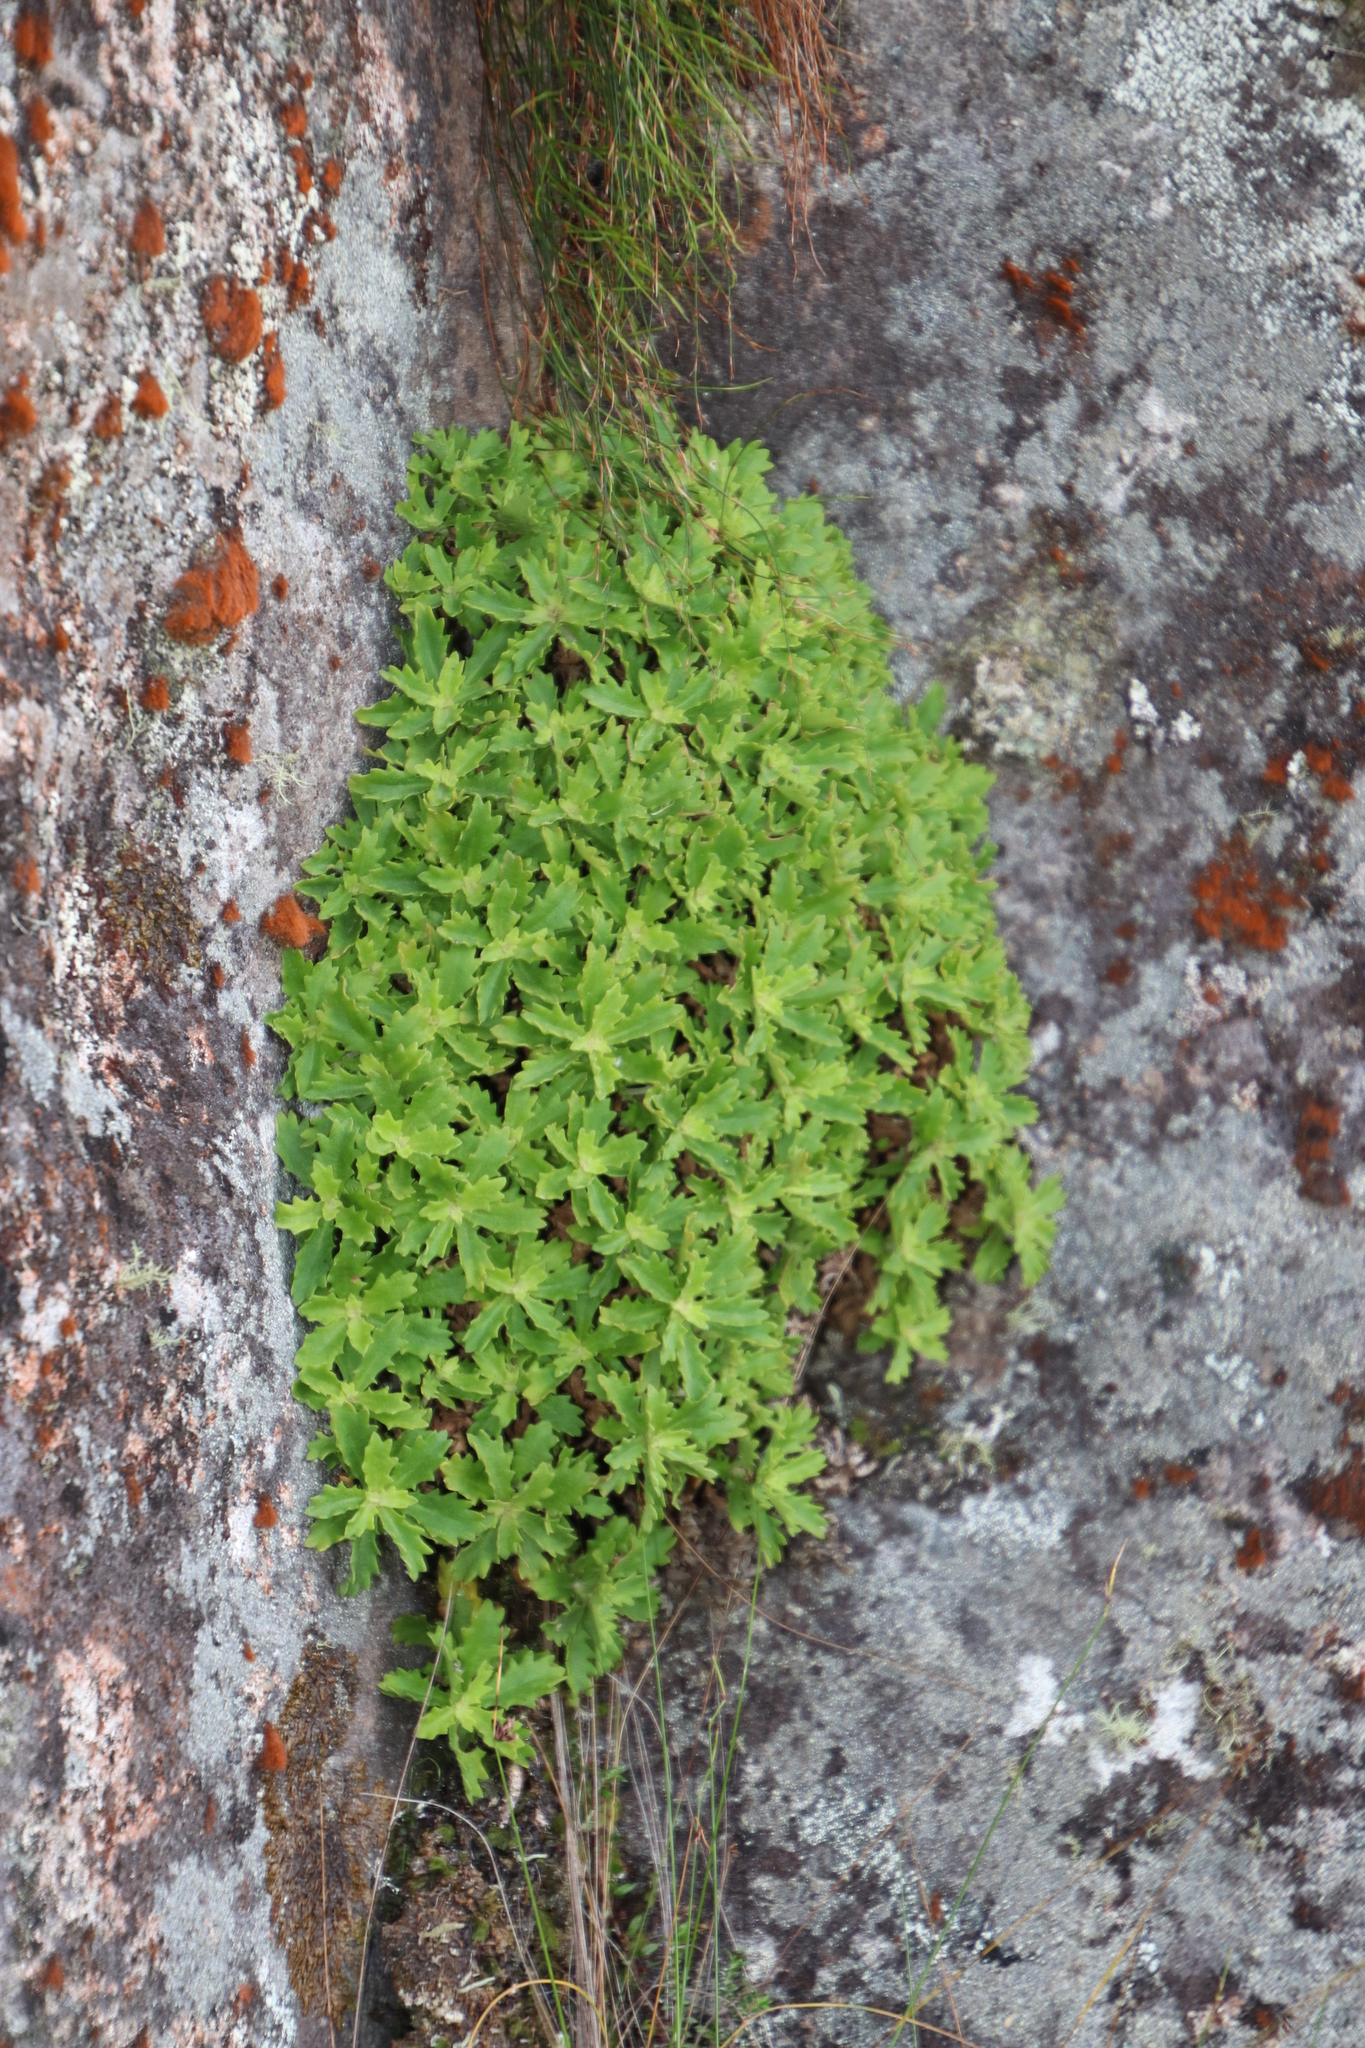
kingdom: Plantae
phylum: Tracheophyta
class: Magnoliopsida
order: Asterales
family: Asteraceae
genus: Osmitopsis
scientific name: Osmitopsis dentata
